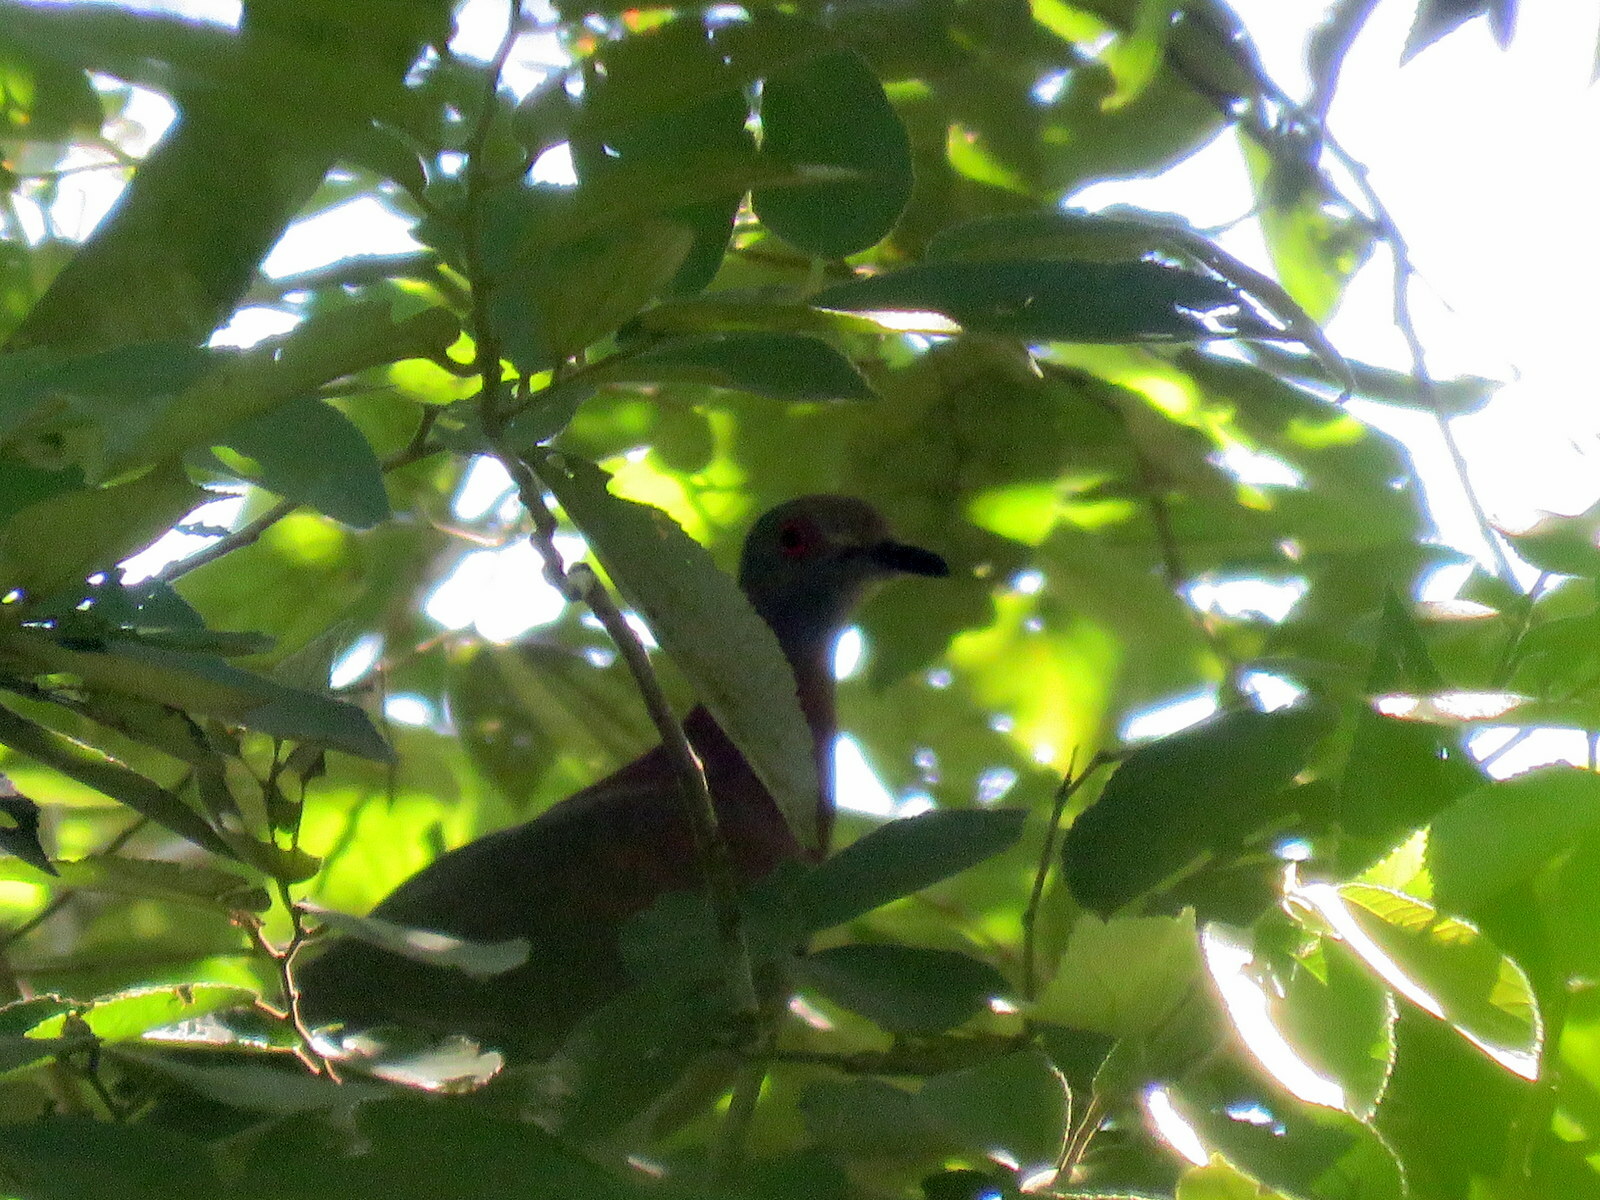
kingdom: Animalia
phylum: Chordata
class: Aves
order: Columbiformes
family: Columbidae
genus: Patagioenas
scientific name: Patagioenas cayennensis
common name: Pale-vented pigeon
